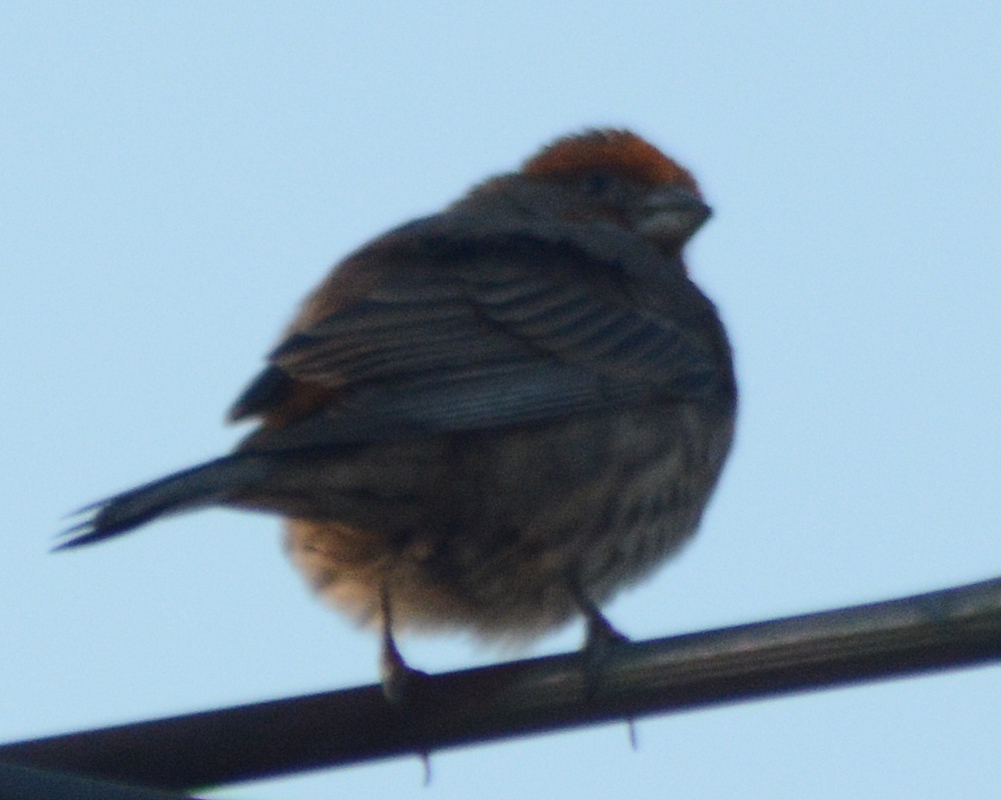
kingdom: Animalia
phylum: Chordata
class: Aves
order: Passeriformes
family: Fringillidae
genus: Haemorhous
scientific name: Haemorhous mexicanus
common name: House finch
